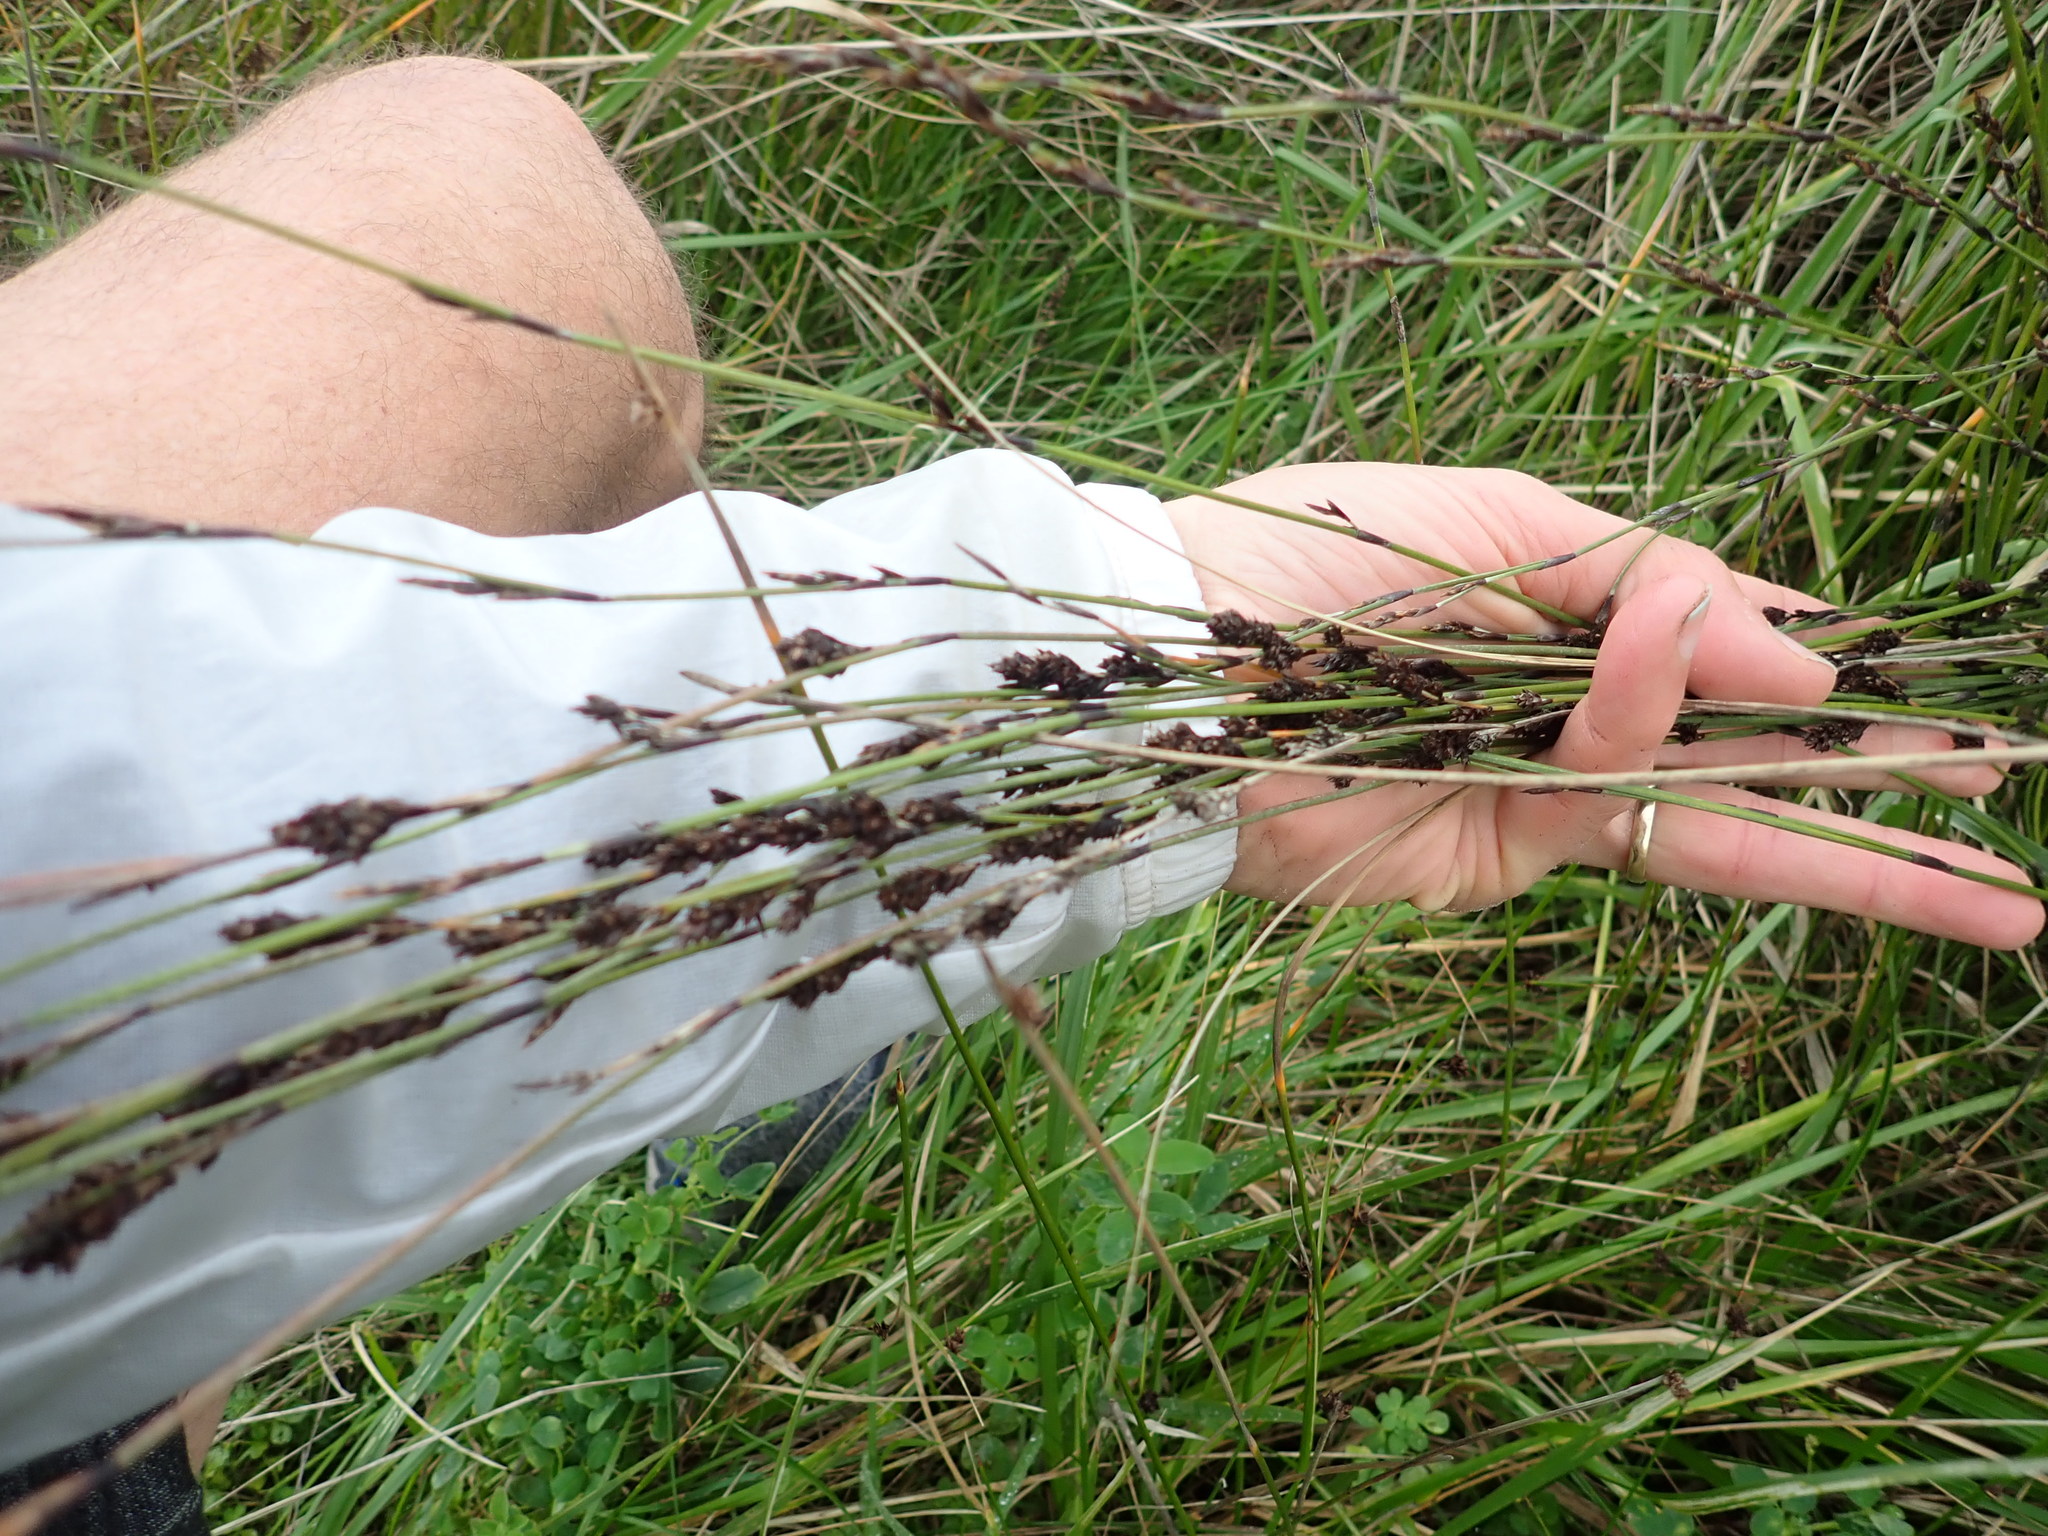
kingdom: Plantae
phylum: Tracheophyta
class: Liliopsida
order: Poales
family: Restionaceae
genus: Apodasmia
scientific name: Apodasmia similis
